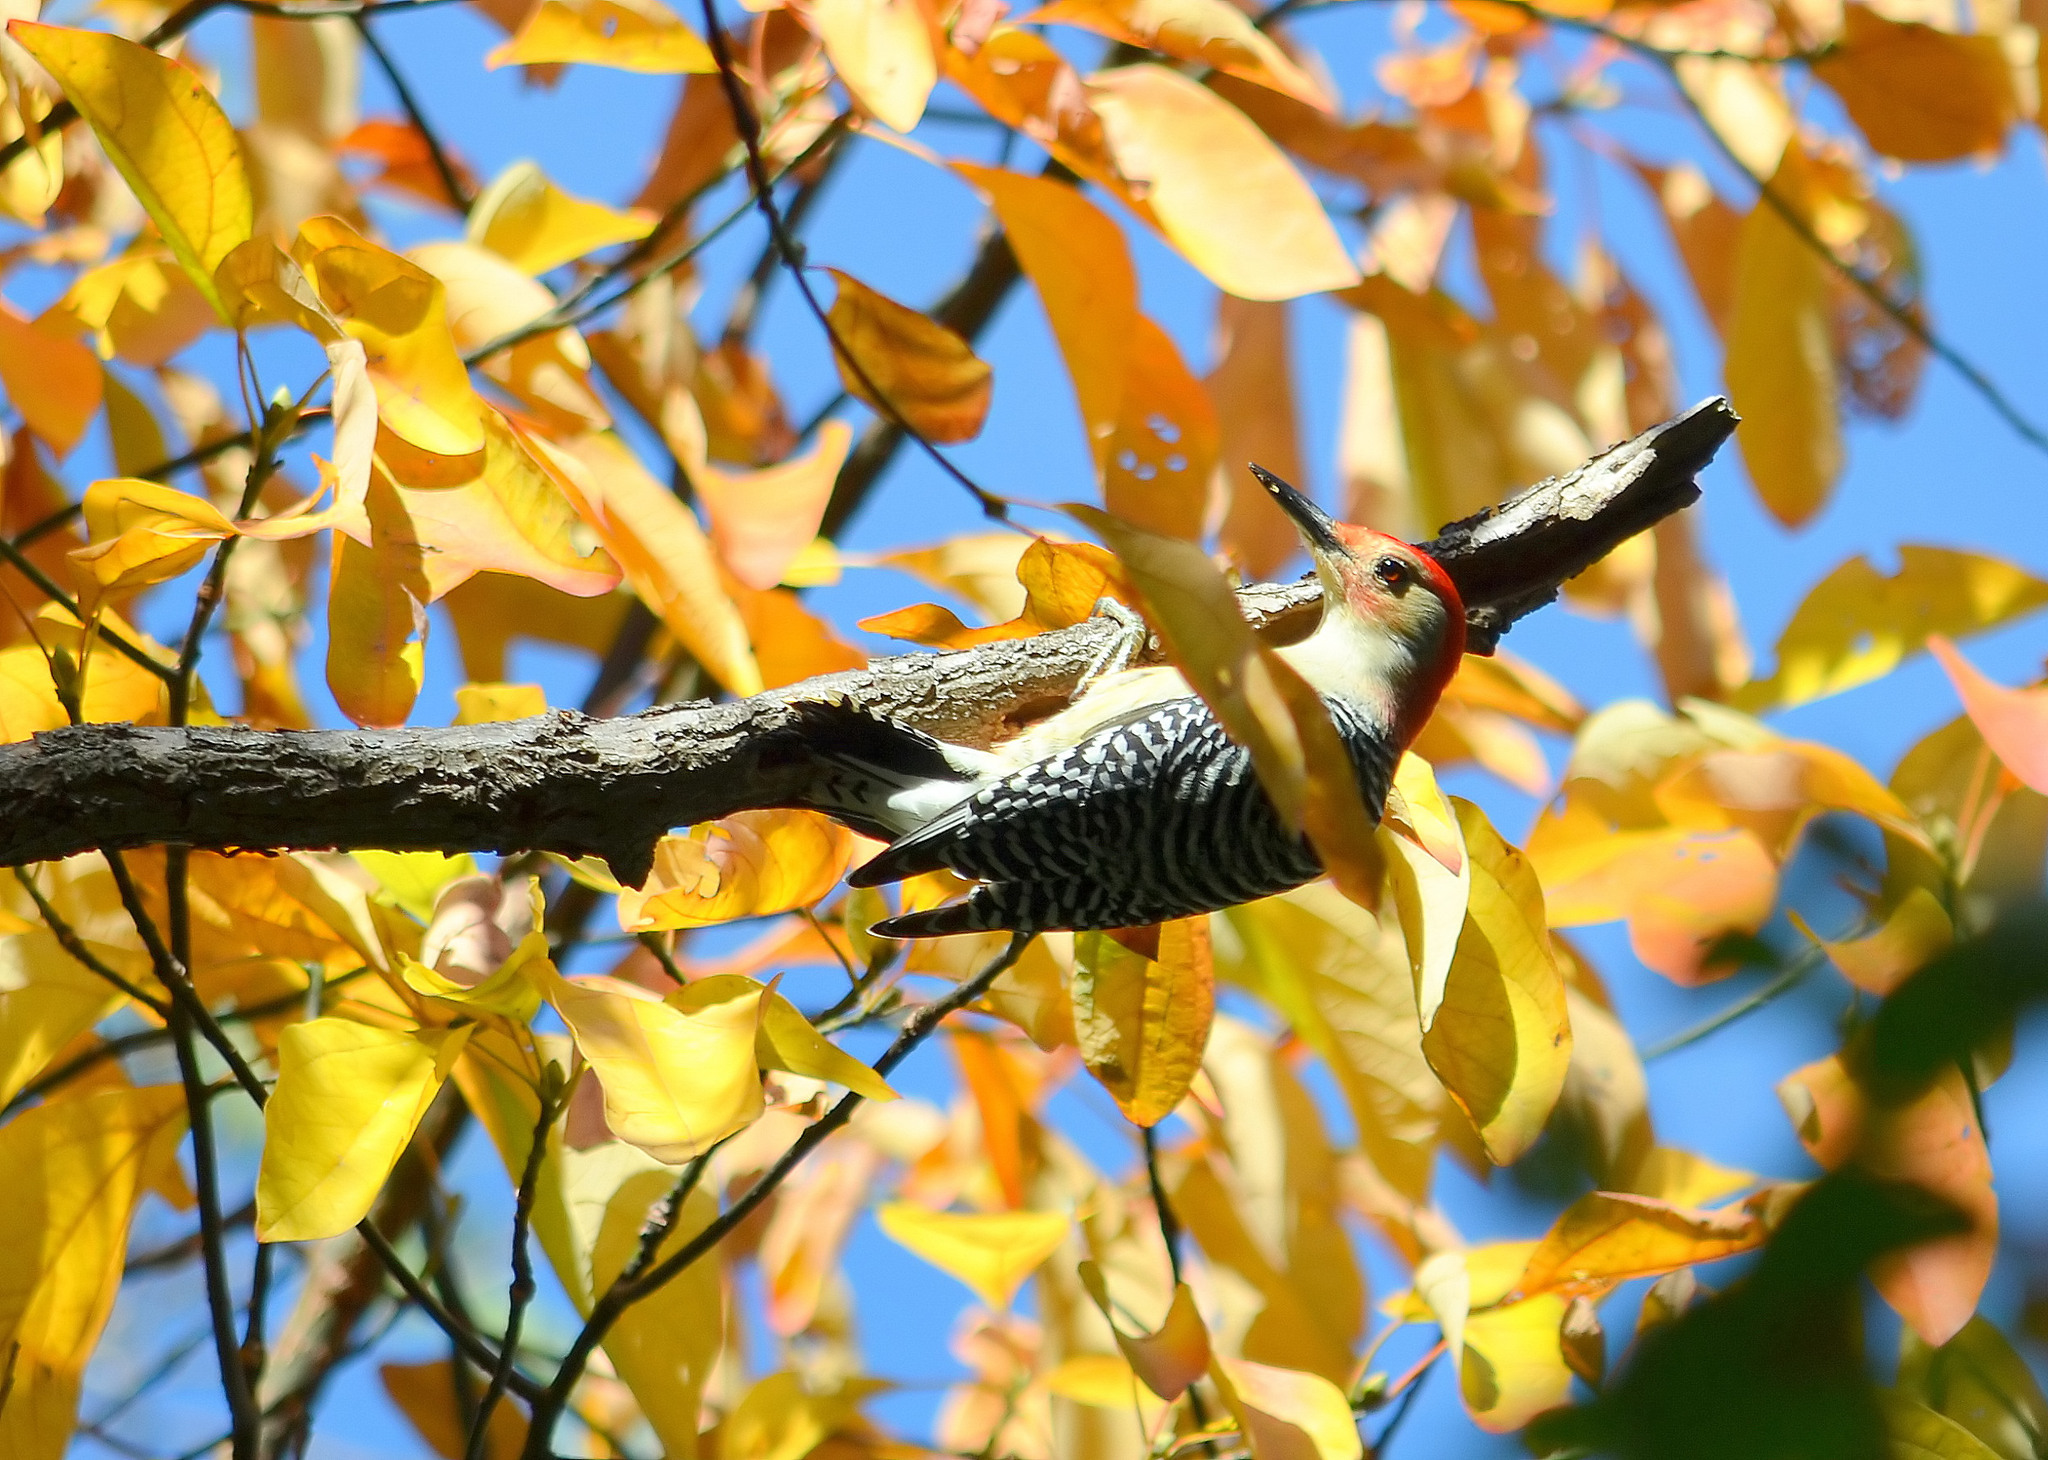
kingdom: Animalia
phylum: Chordata
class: Aves
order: Piciformes
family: Picidae
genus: Melanerpes
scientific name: Melanerpes carolinus
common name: Red-bellied woodpecker
